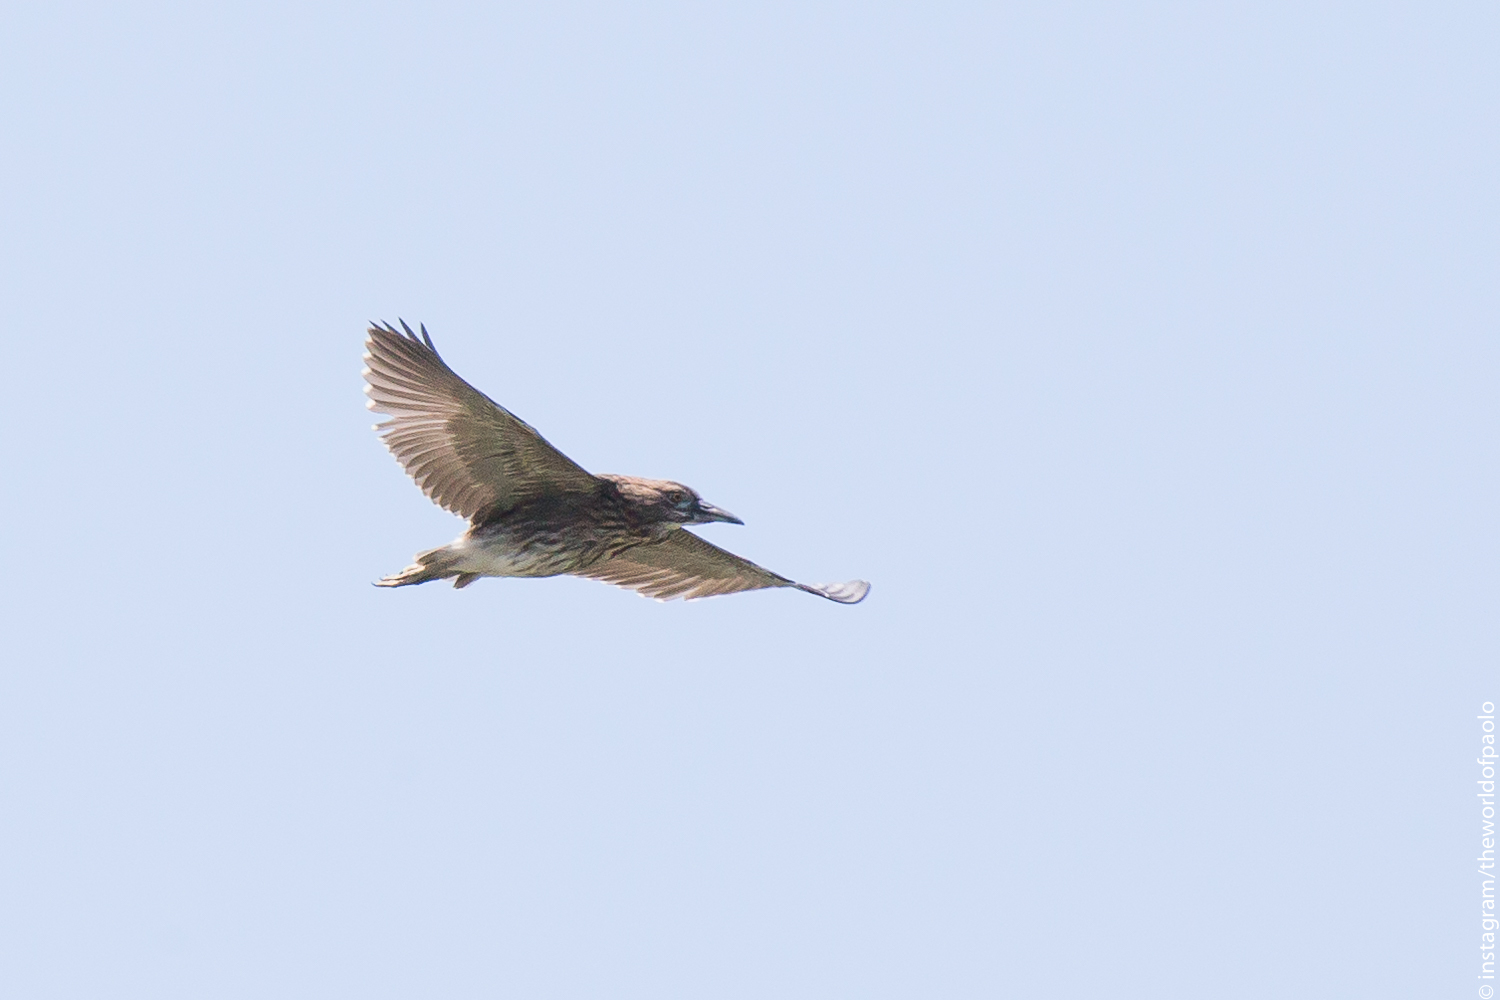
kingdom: Animalia
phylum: Chordata
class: Aves
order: Pelecaniformes
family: Ardeidae
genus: Nycticorax
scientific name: Nycticorax nycticorax
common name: Black-crowned night heron
